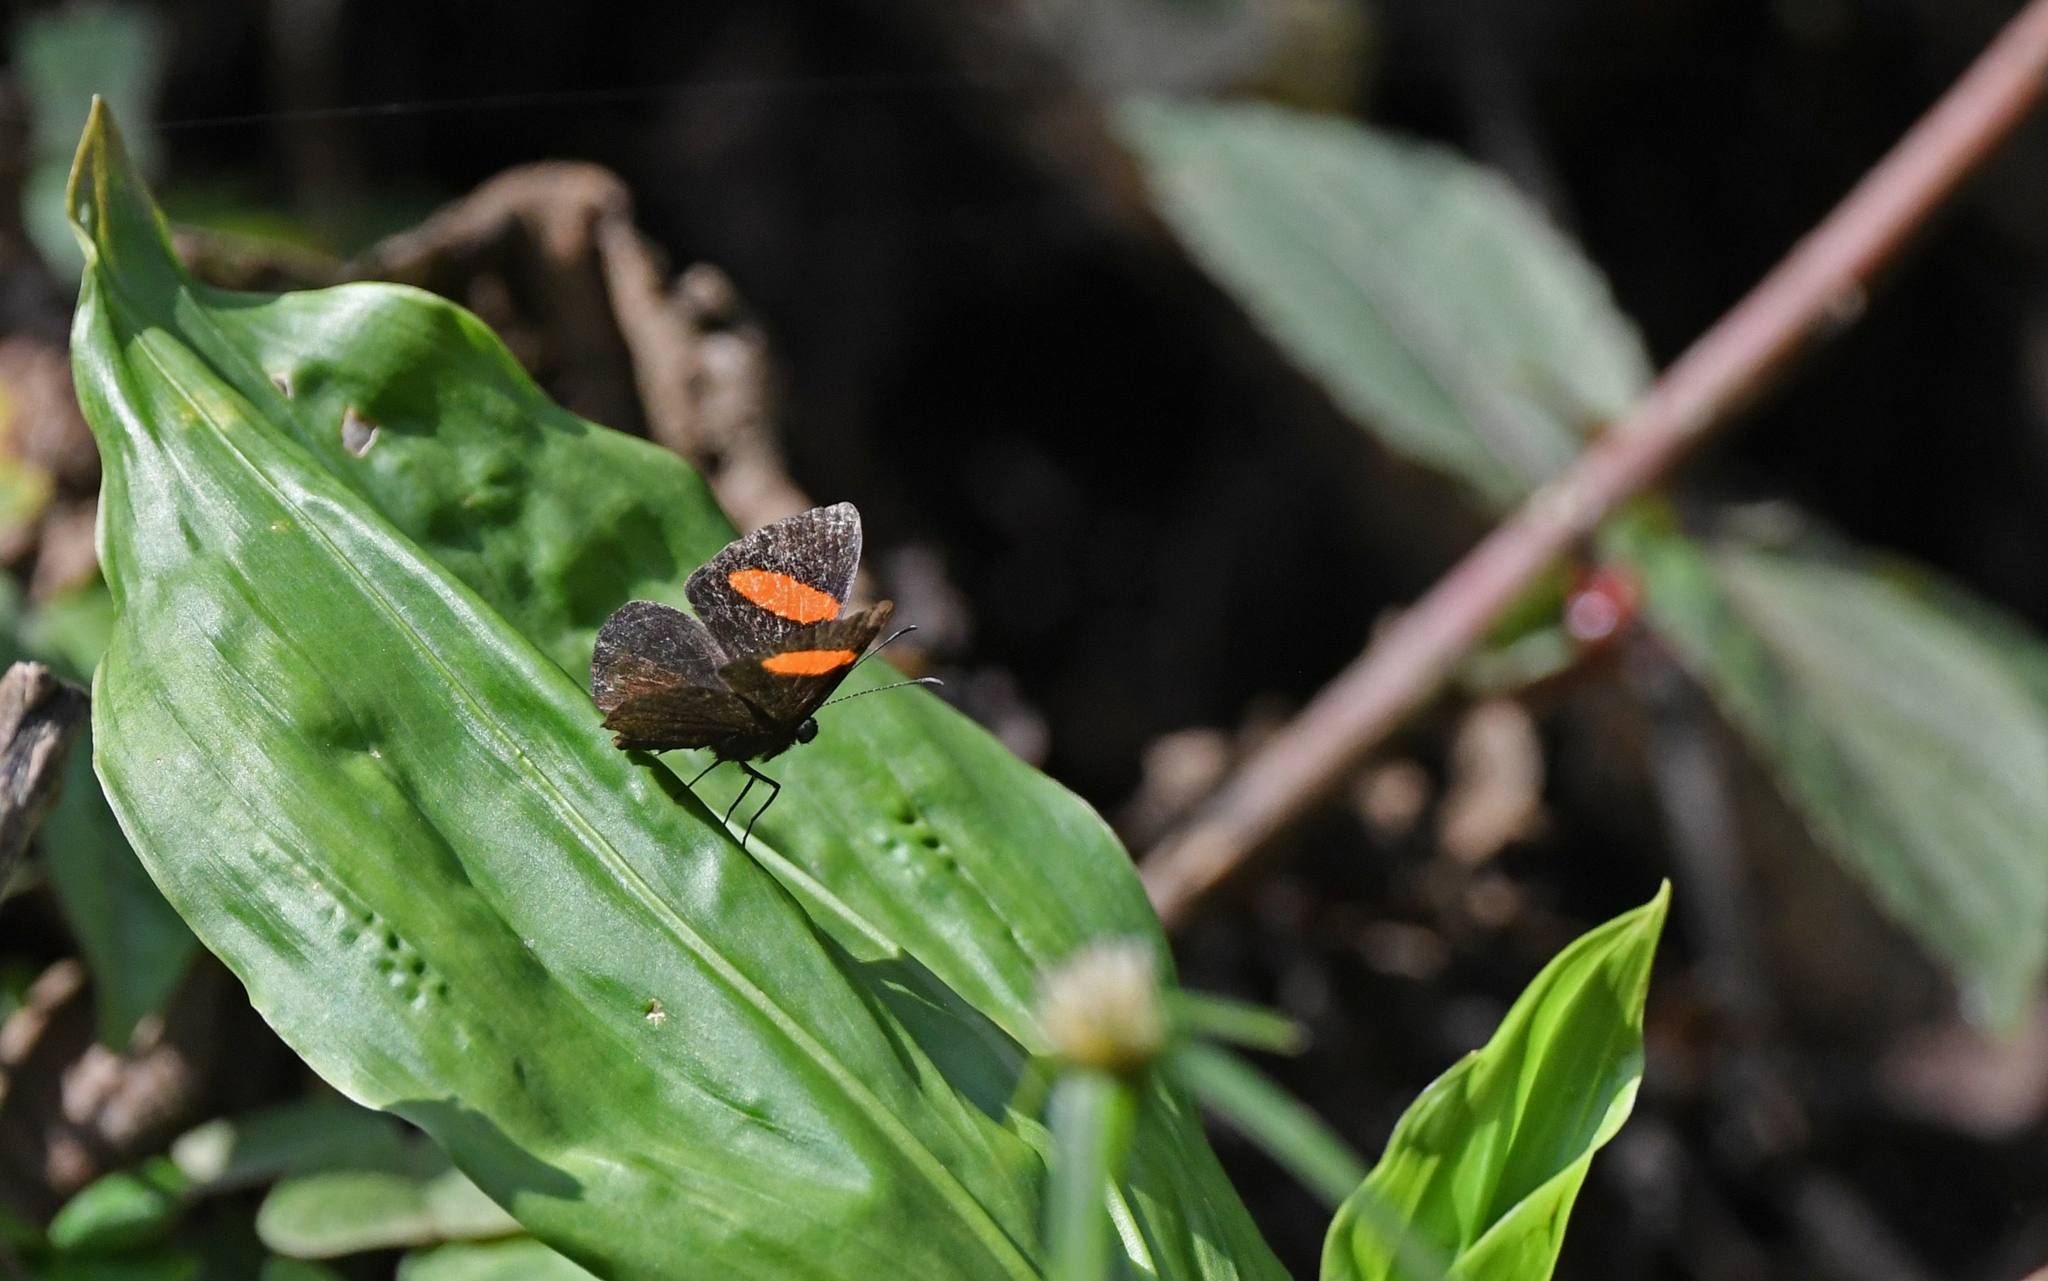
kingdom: Animalia
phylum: Arthropoda
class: Insecta
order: Lepidoptera
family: Riodinidae
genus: Crocozona
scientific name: Crocozona fasciata
